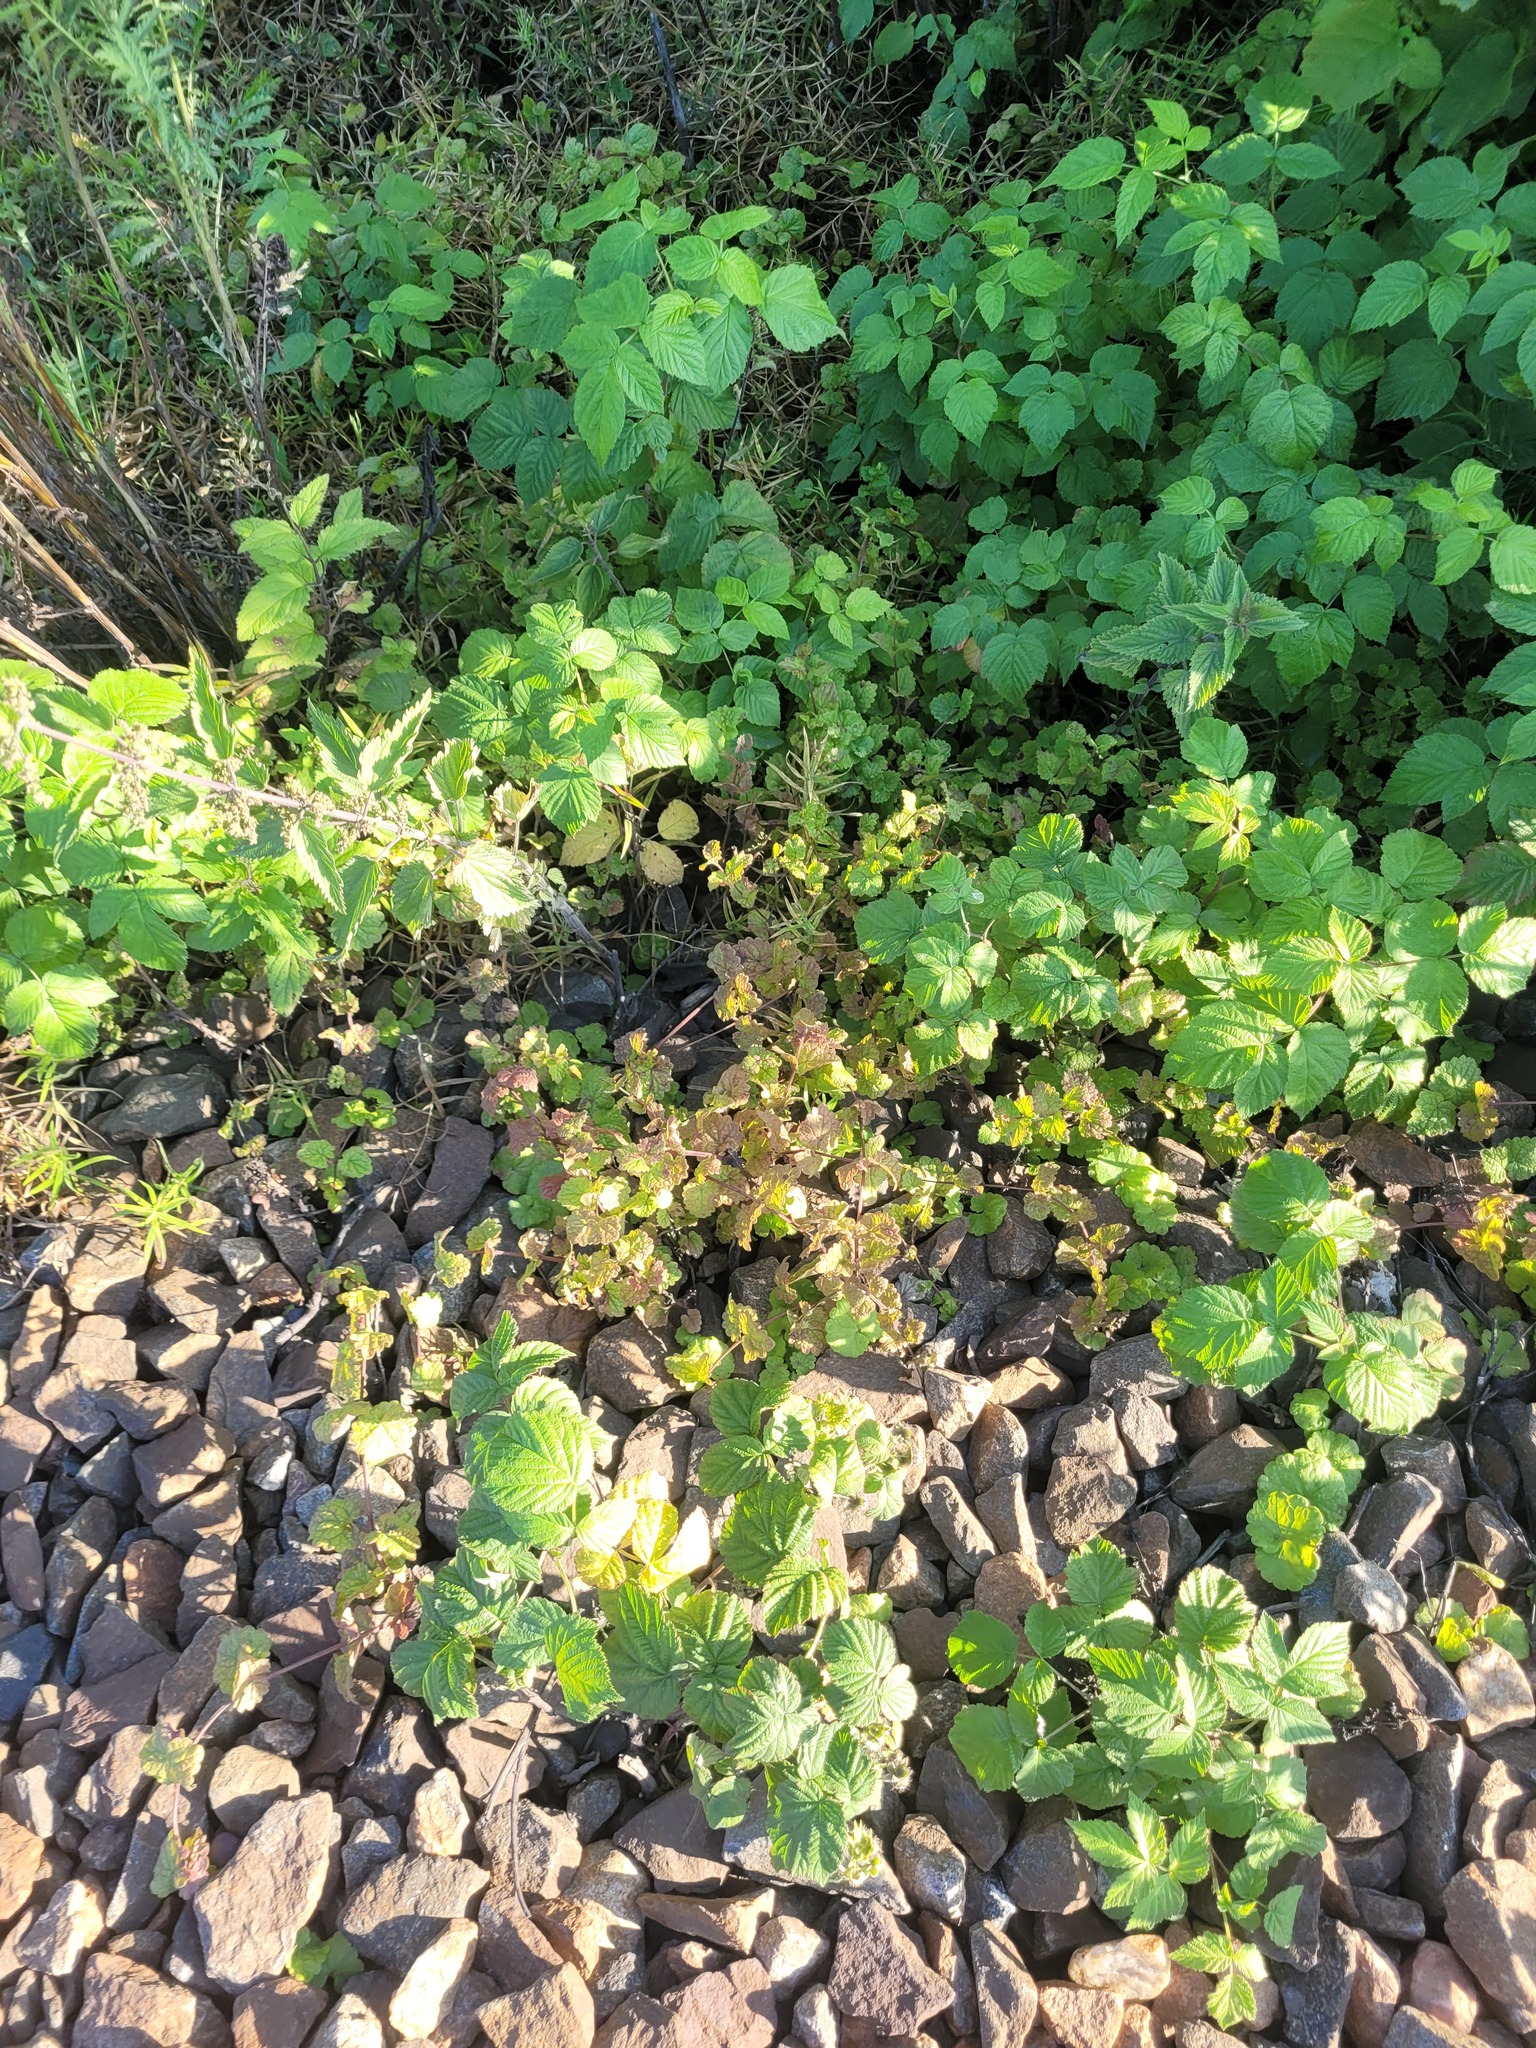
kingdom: Plantae
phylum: Tracheophyta
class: Magnoliopsida
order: Lamiales
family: Lamiaceae
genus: Glechoma
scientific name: Glechoma hederacea
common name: Ground ivy
